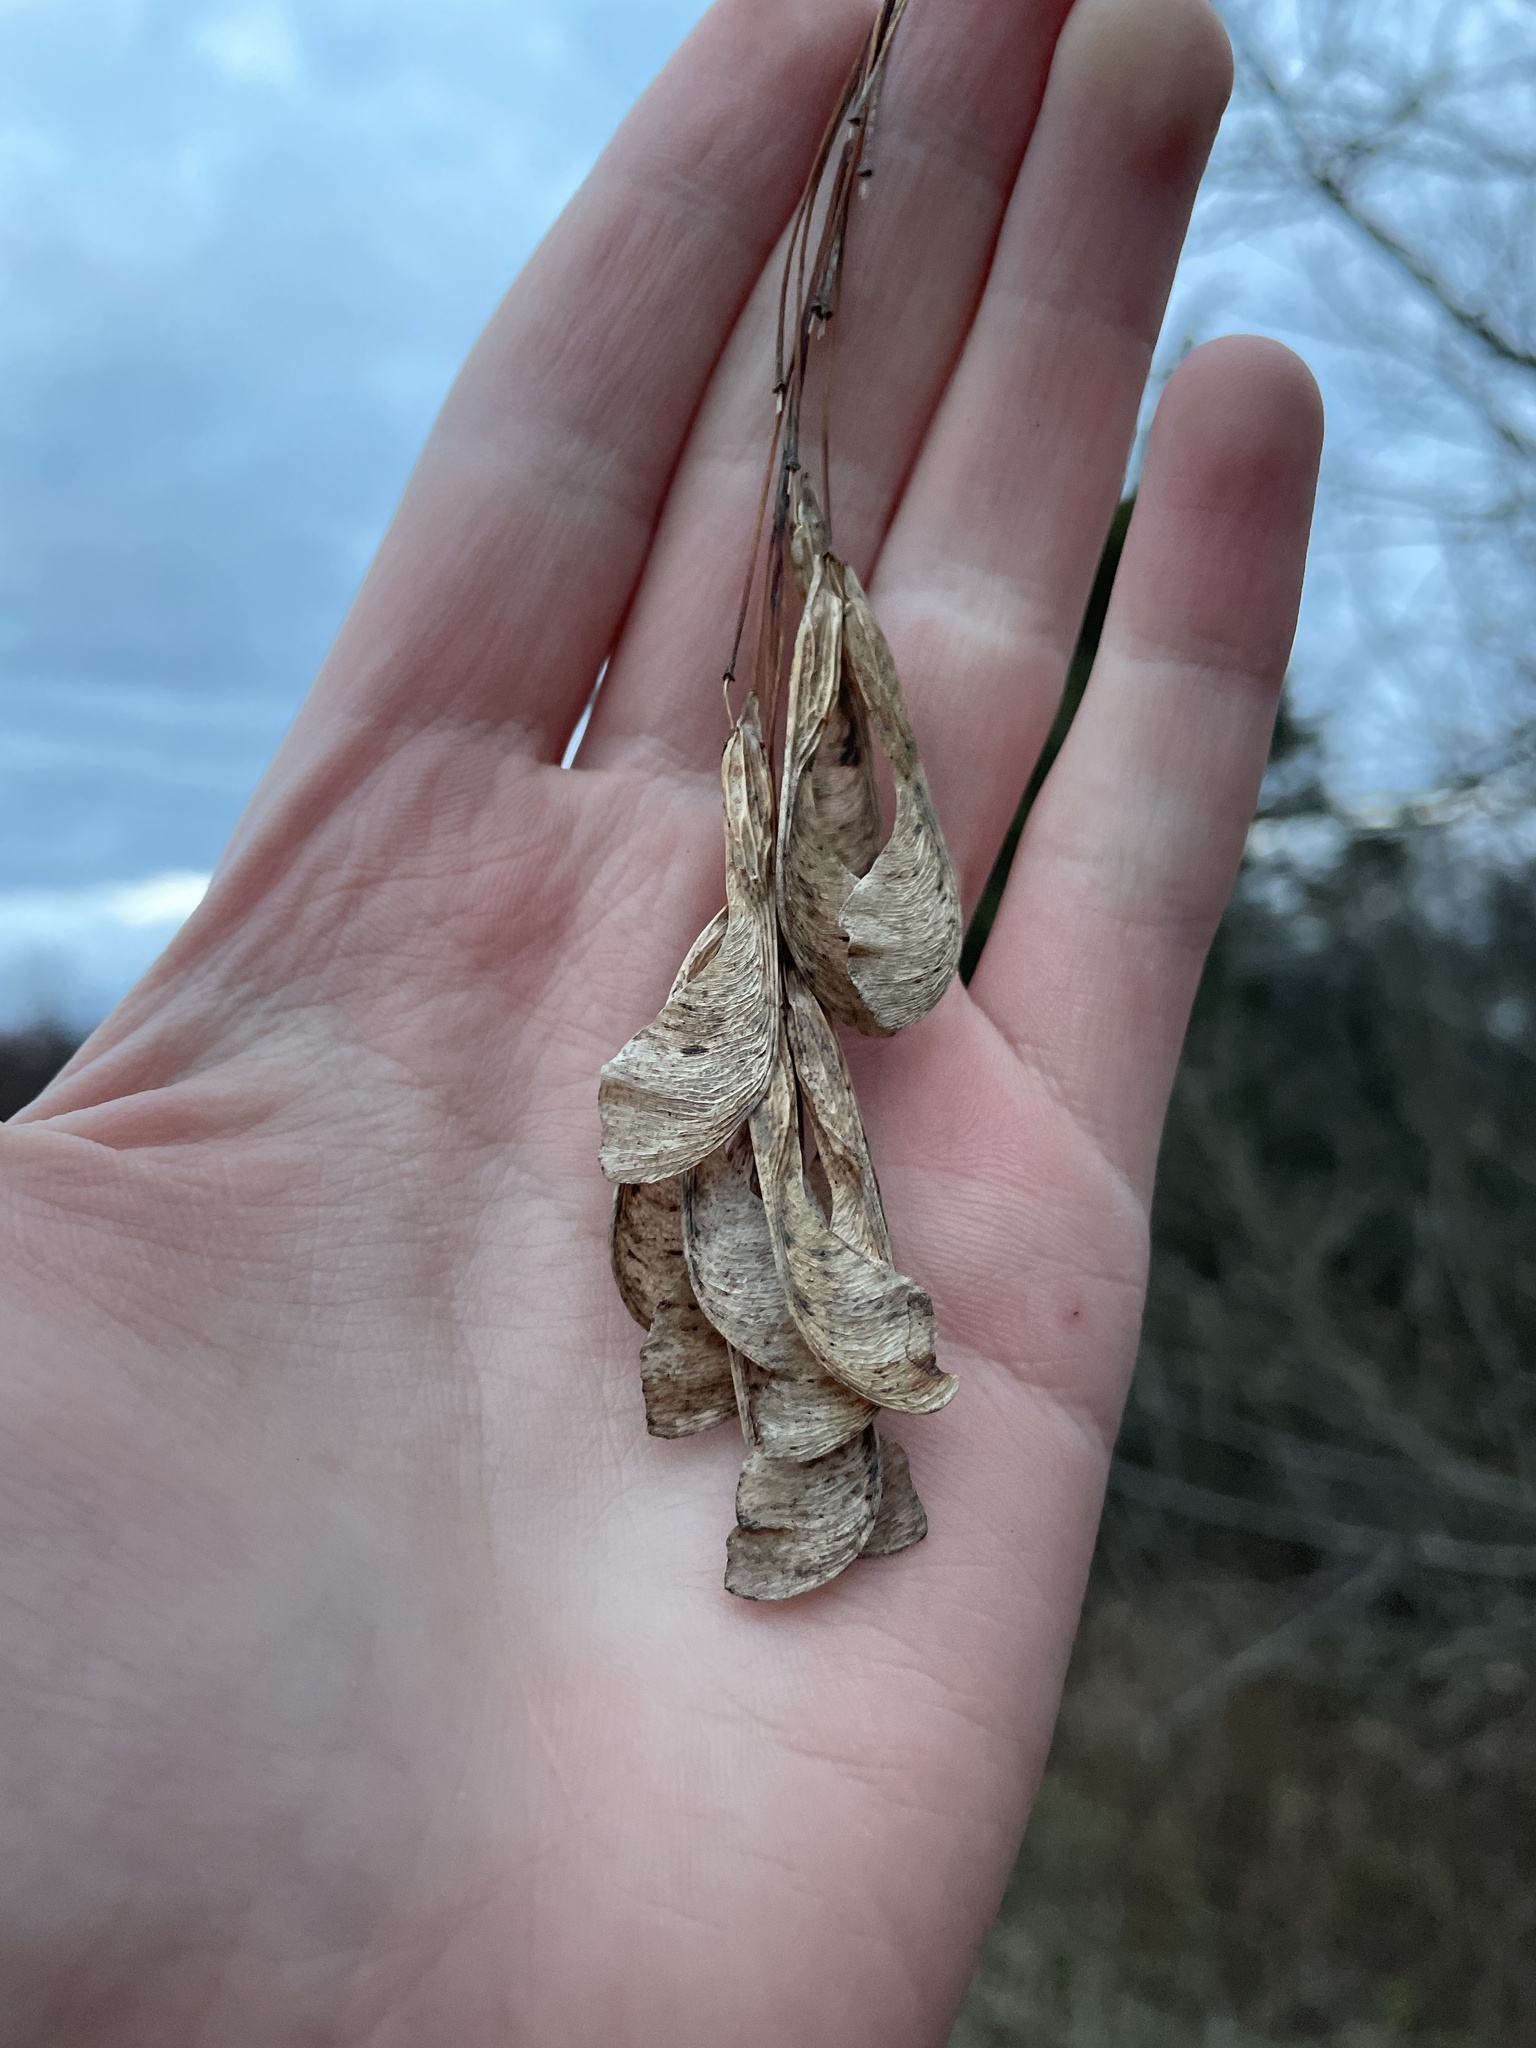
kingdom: Plantae
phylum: Tracheophyta
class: Magnoliopsida
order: Sapindales
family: Sapindaceae
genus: Acer
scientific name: Acer negundo
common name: Ashleaf maple
